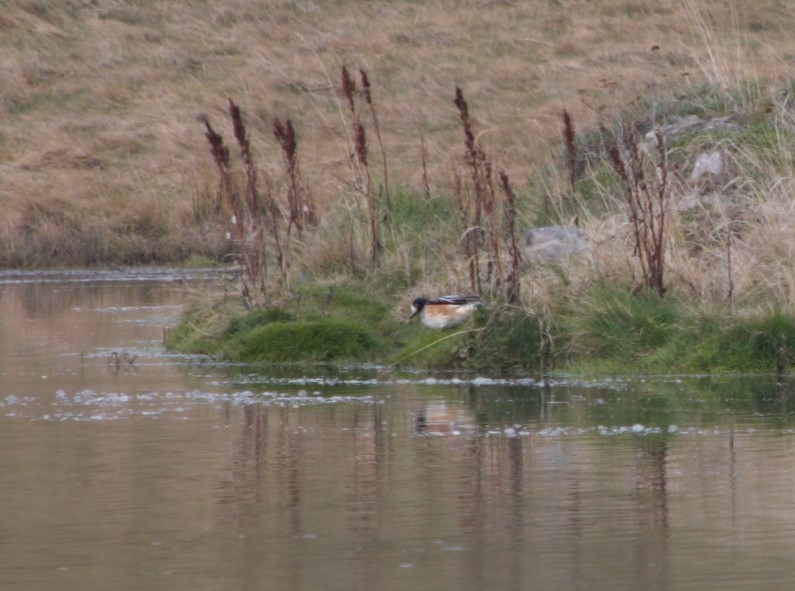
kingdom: Animalia
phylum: Chordata
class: Aves
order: Anseriformes
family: Anatidae
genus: Mareca
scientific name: Mareca sibilatrix
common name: Chiloe wigeon
